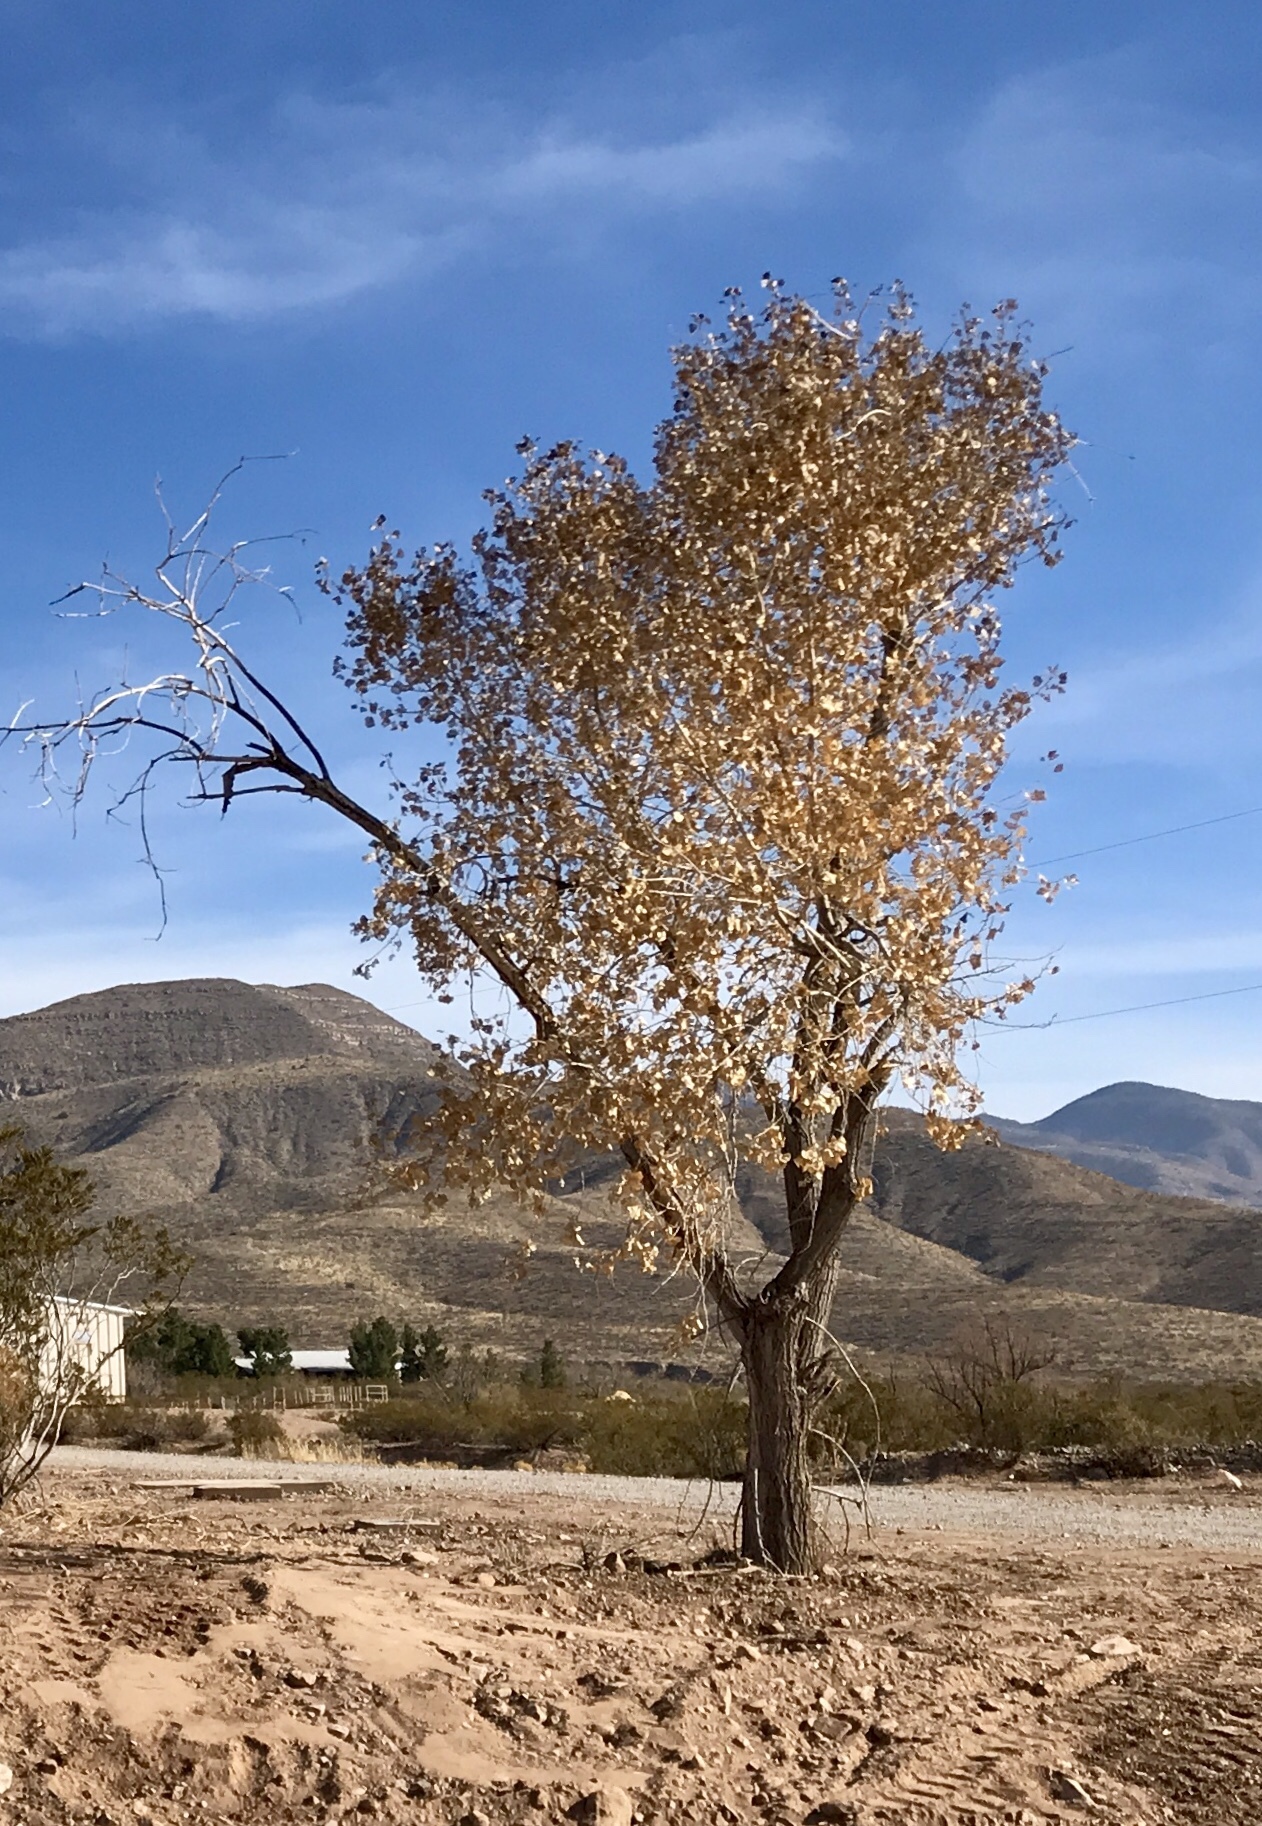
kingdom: Plantae
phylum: Tracheophyta
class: Magnoliopsida
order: Malpighiales
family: Salicaceae
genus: Populus
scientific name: Populus fremontii
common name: Fremont's cottonwood
